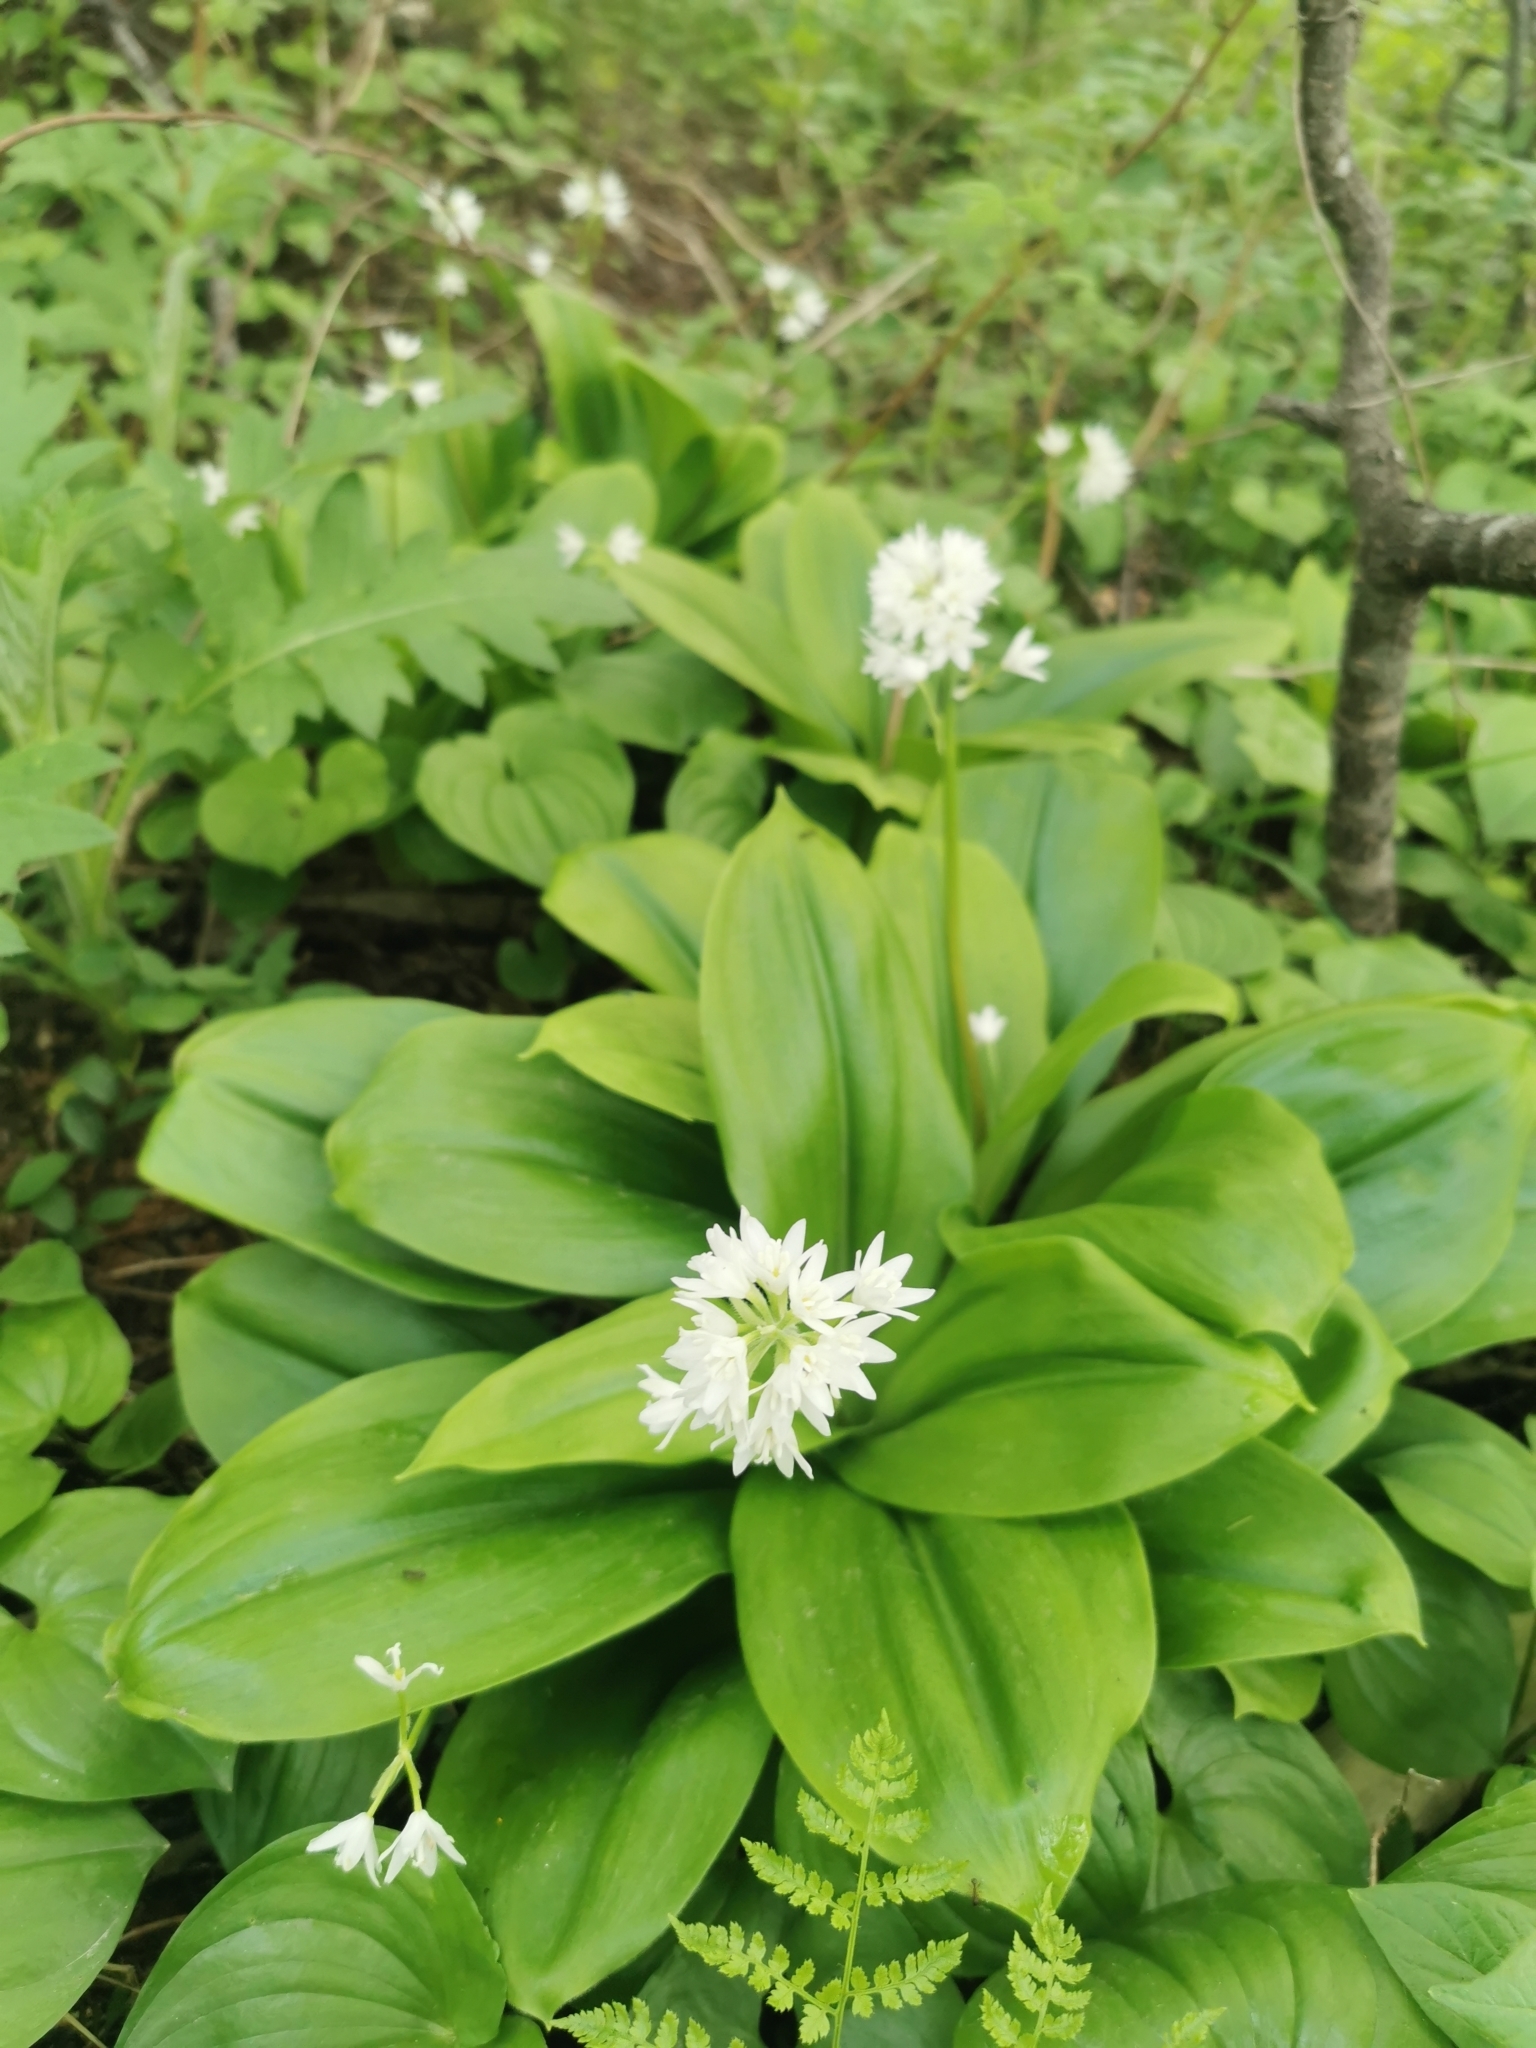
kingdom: Plantae
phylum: Tracheophyta
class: Liliopsida
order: Liliales
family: Liliaceae
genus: Clintonia
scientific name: Clintonia udensis
